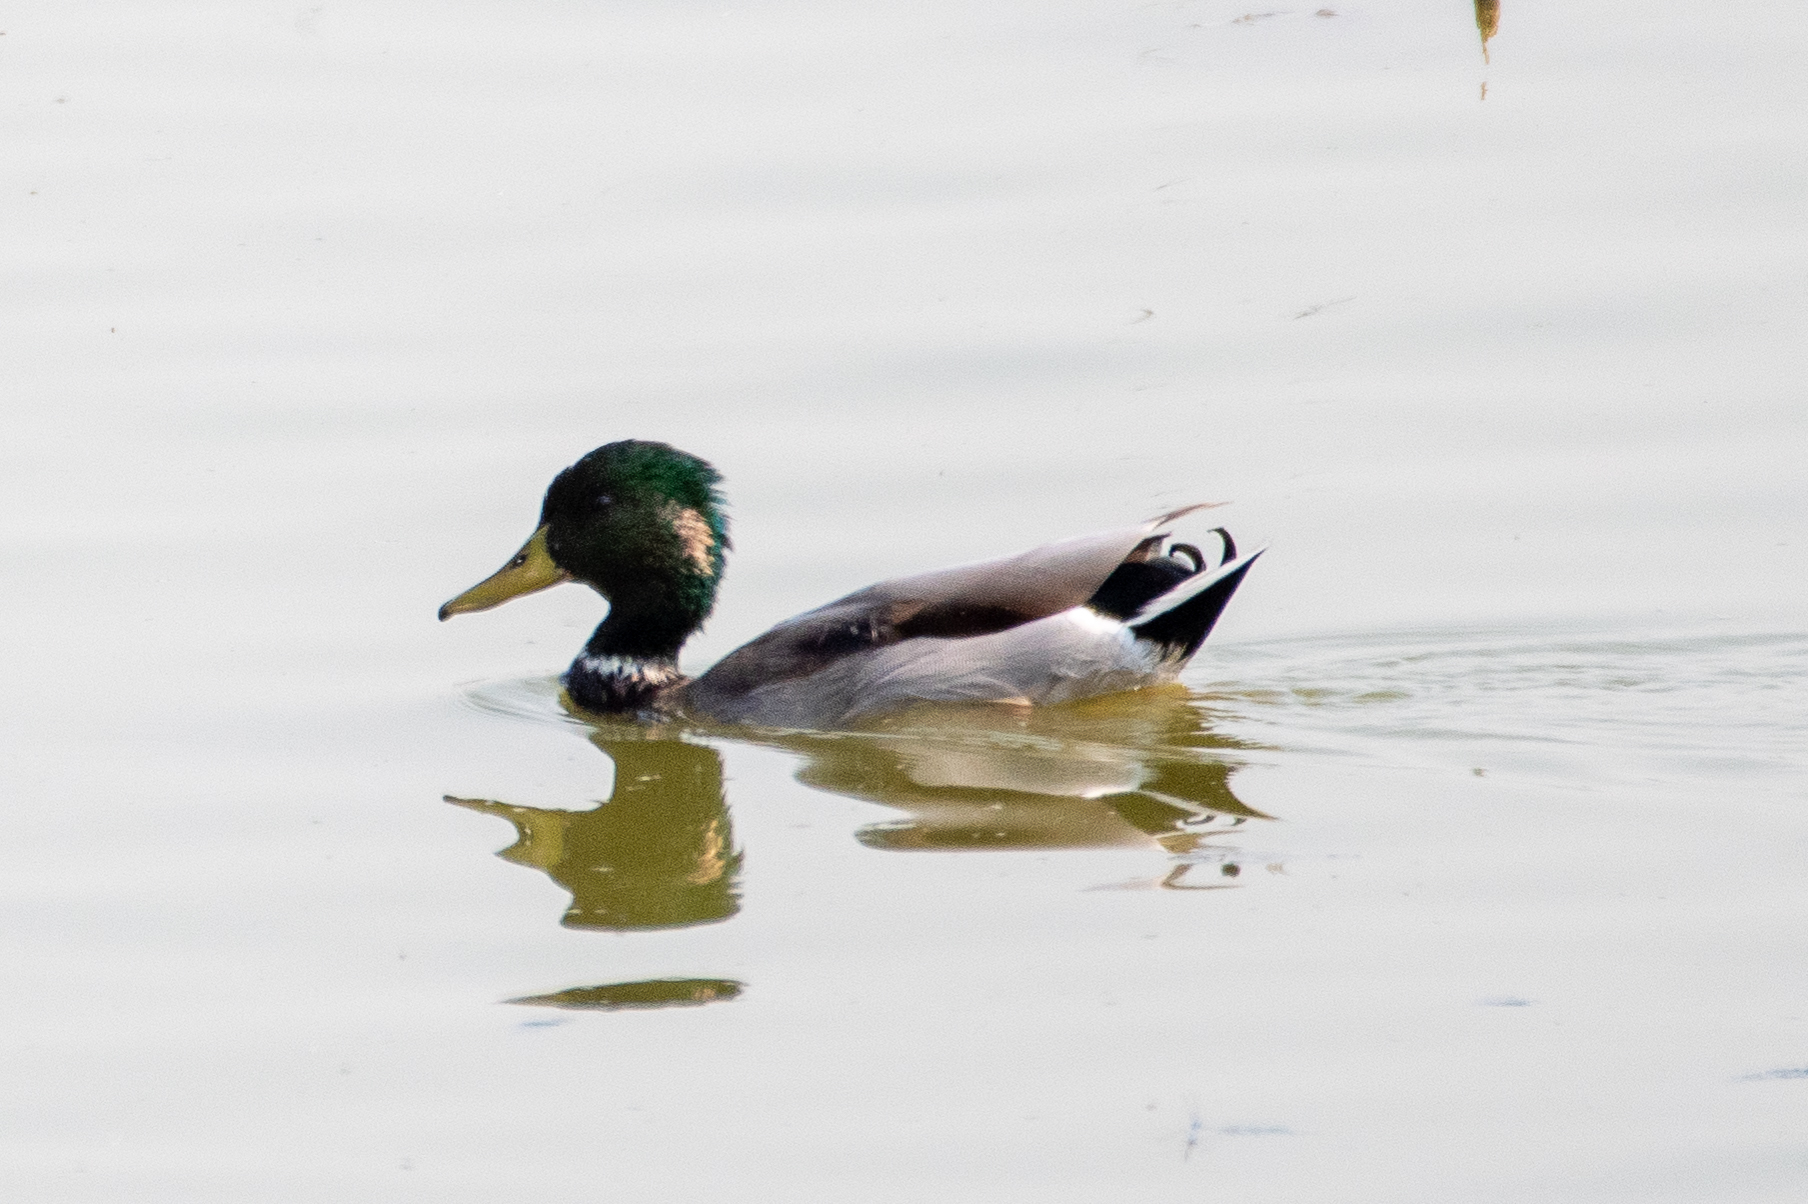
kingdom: Animalia
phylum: Chordata
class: Aves
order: Anseriformes
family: Anatidae
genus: Anas
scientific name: Anas platyrhynchos
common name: Mallard
